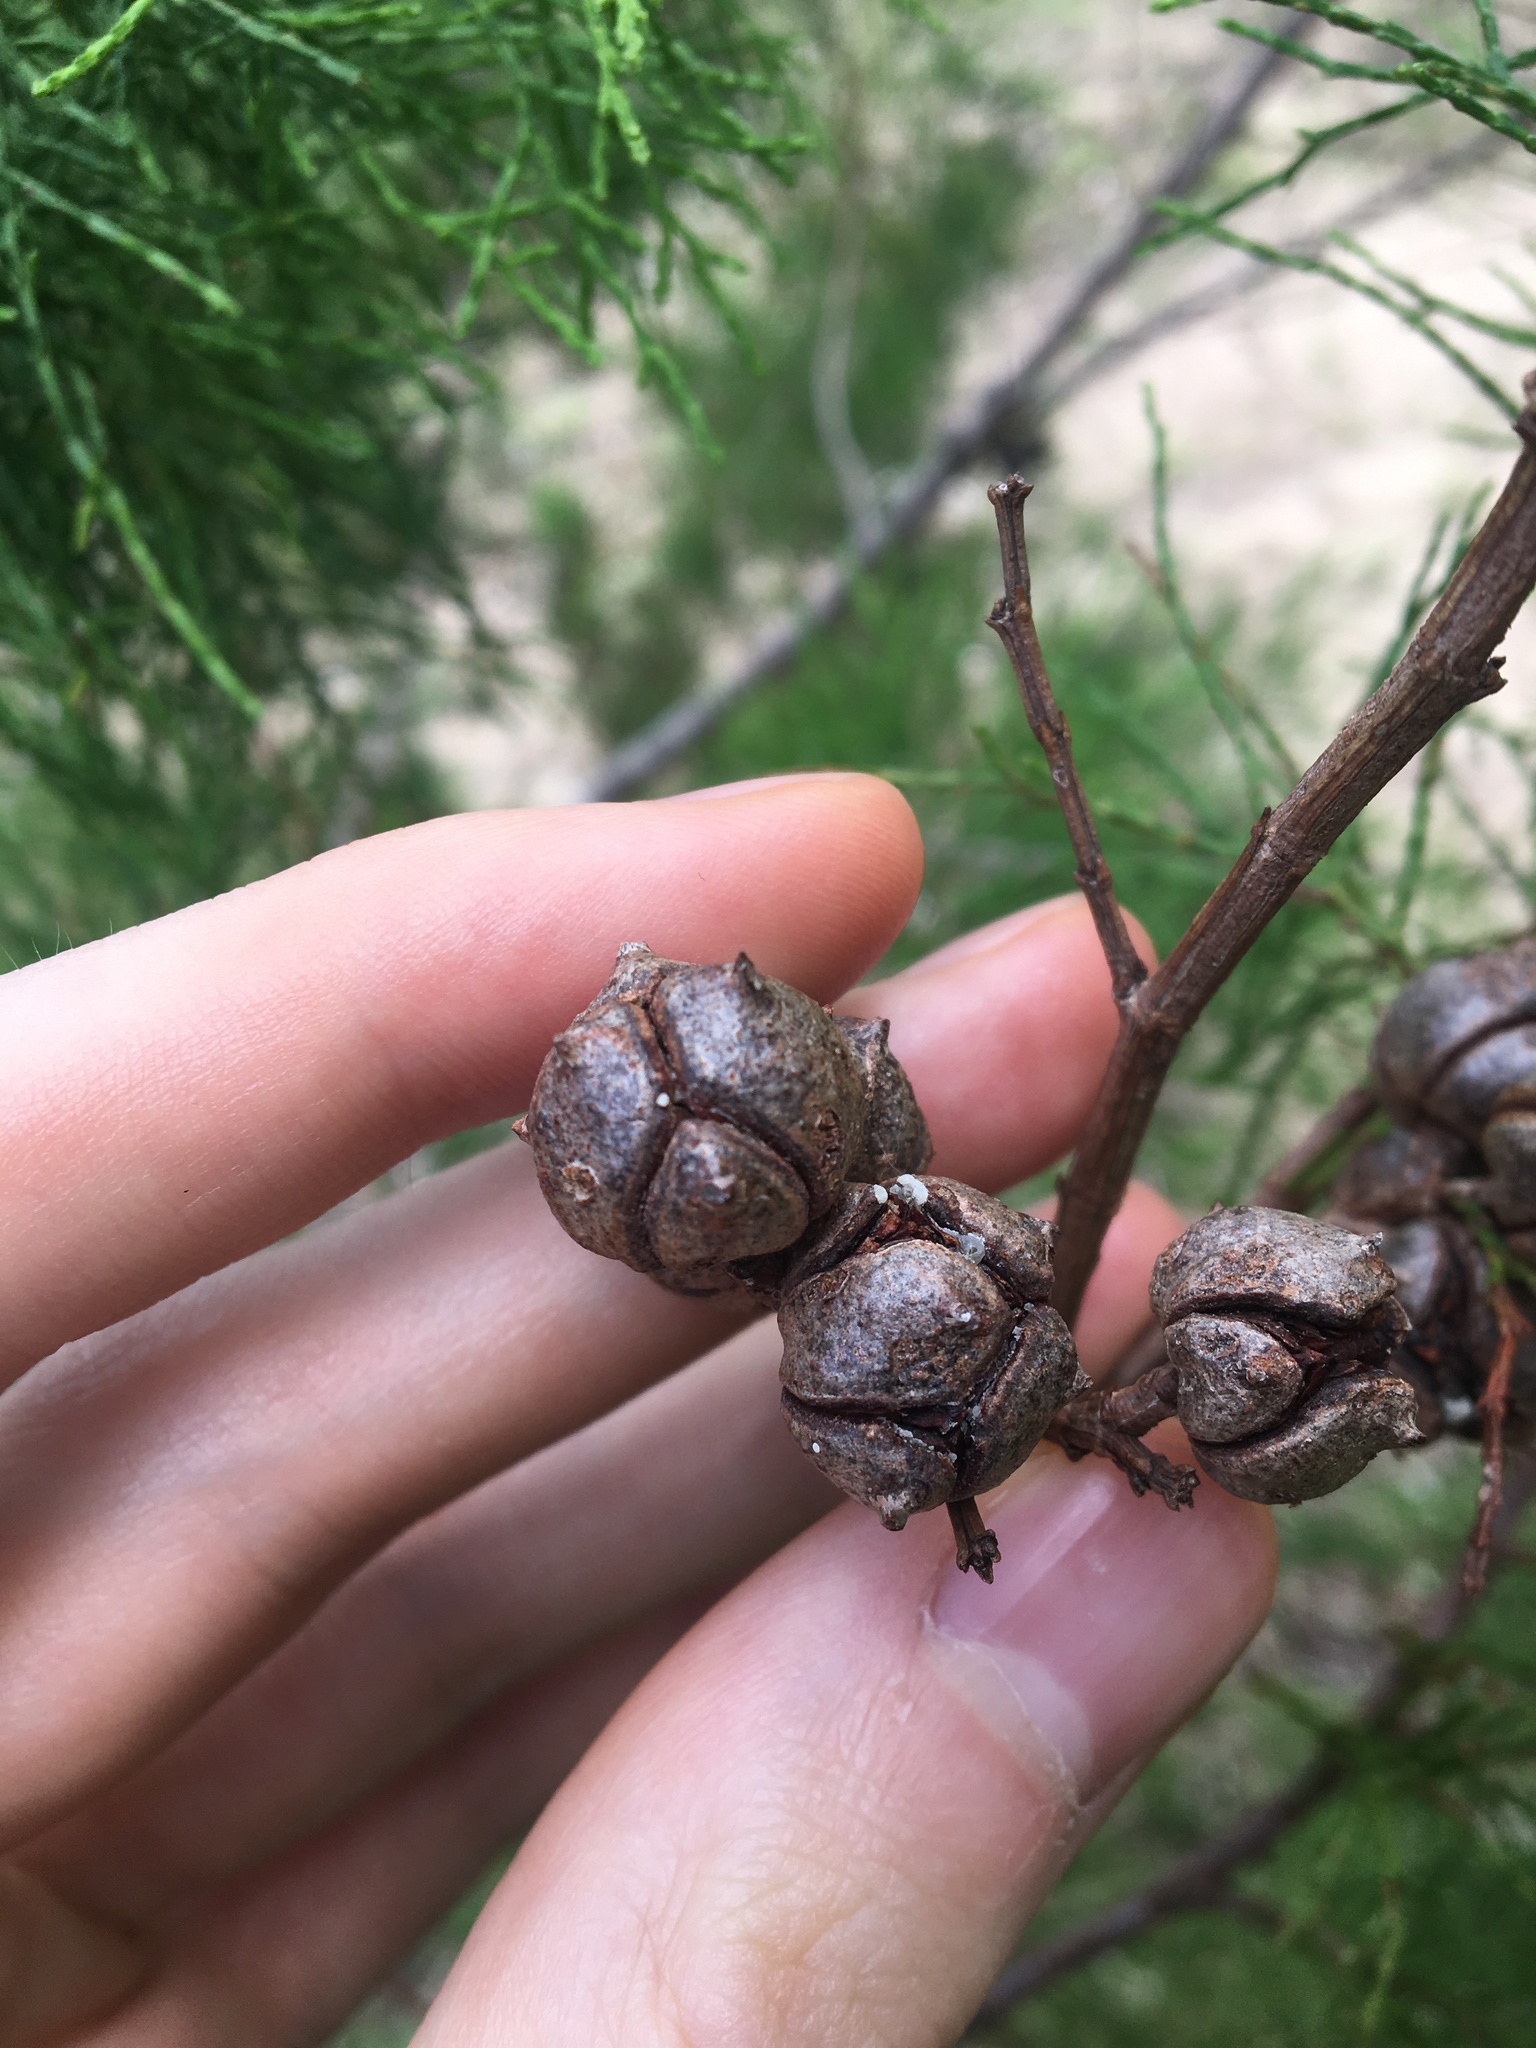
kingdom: Plantae
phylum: Tracheophyta
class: Pinopsida
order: Pinales
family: Cupressaceae
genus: Callitris
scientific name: Callitris rhomboidea
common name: Illawara mountain pine
